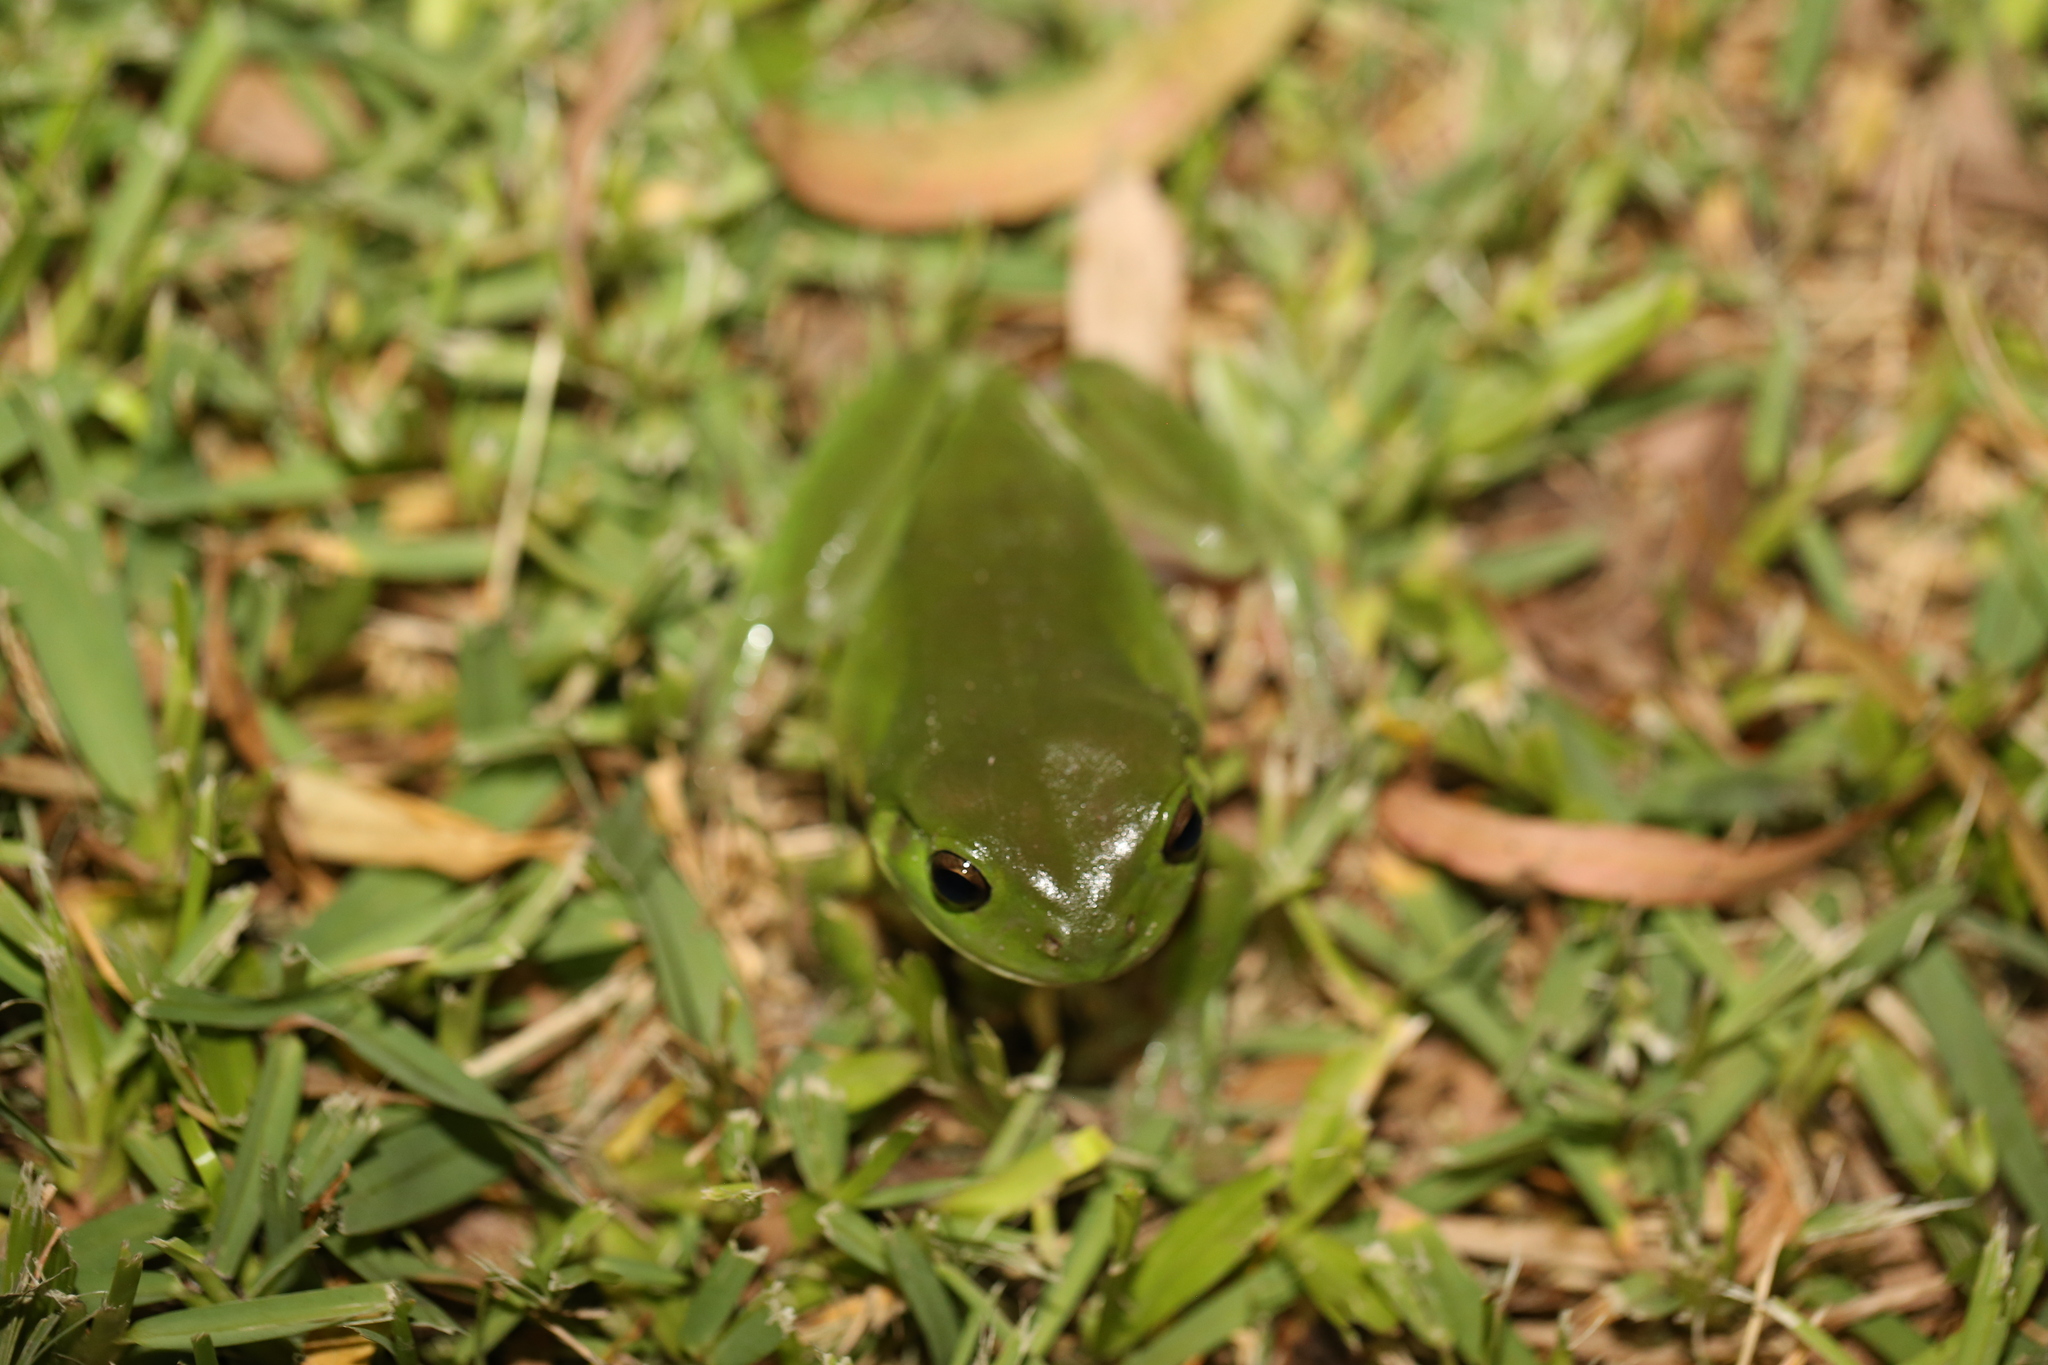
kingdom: Animalia
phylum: Chordata
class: Amphibia
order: Anura
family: Pelodryadidae
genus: Ranoidea
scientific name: Ranoidea caerulea
